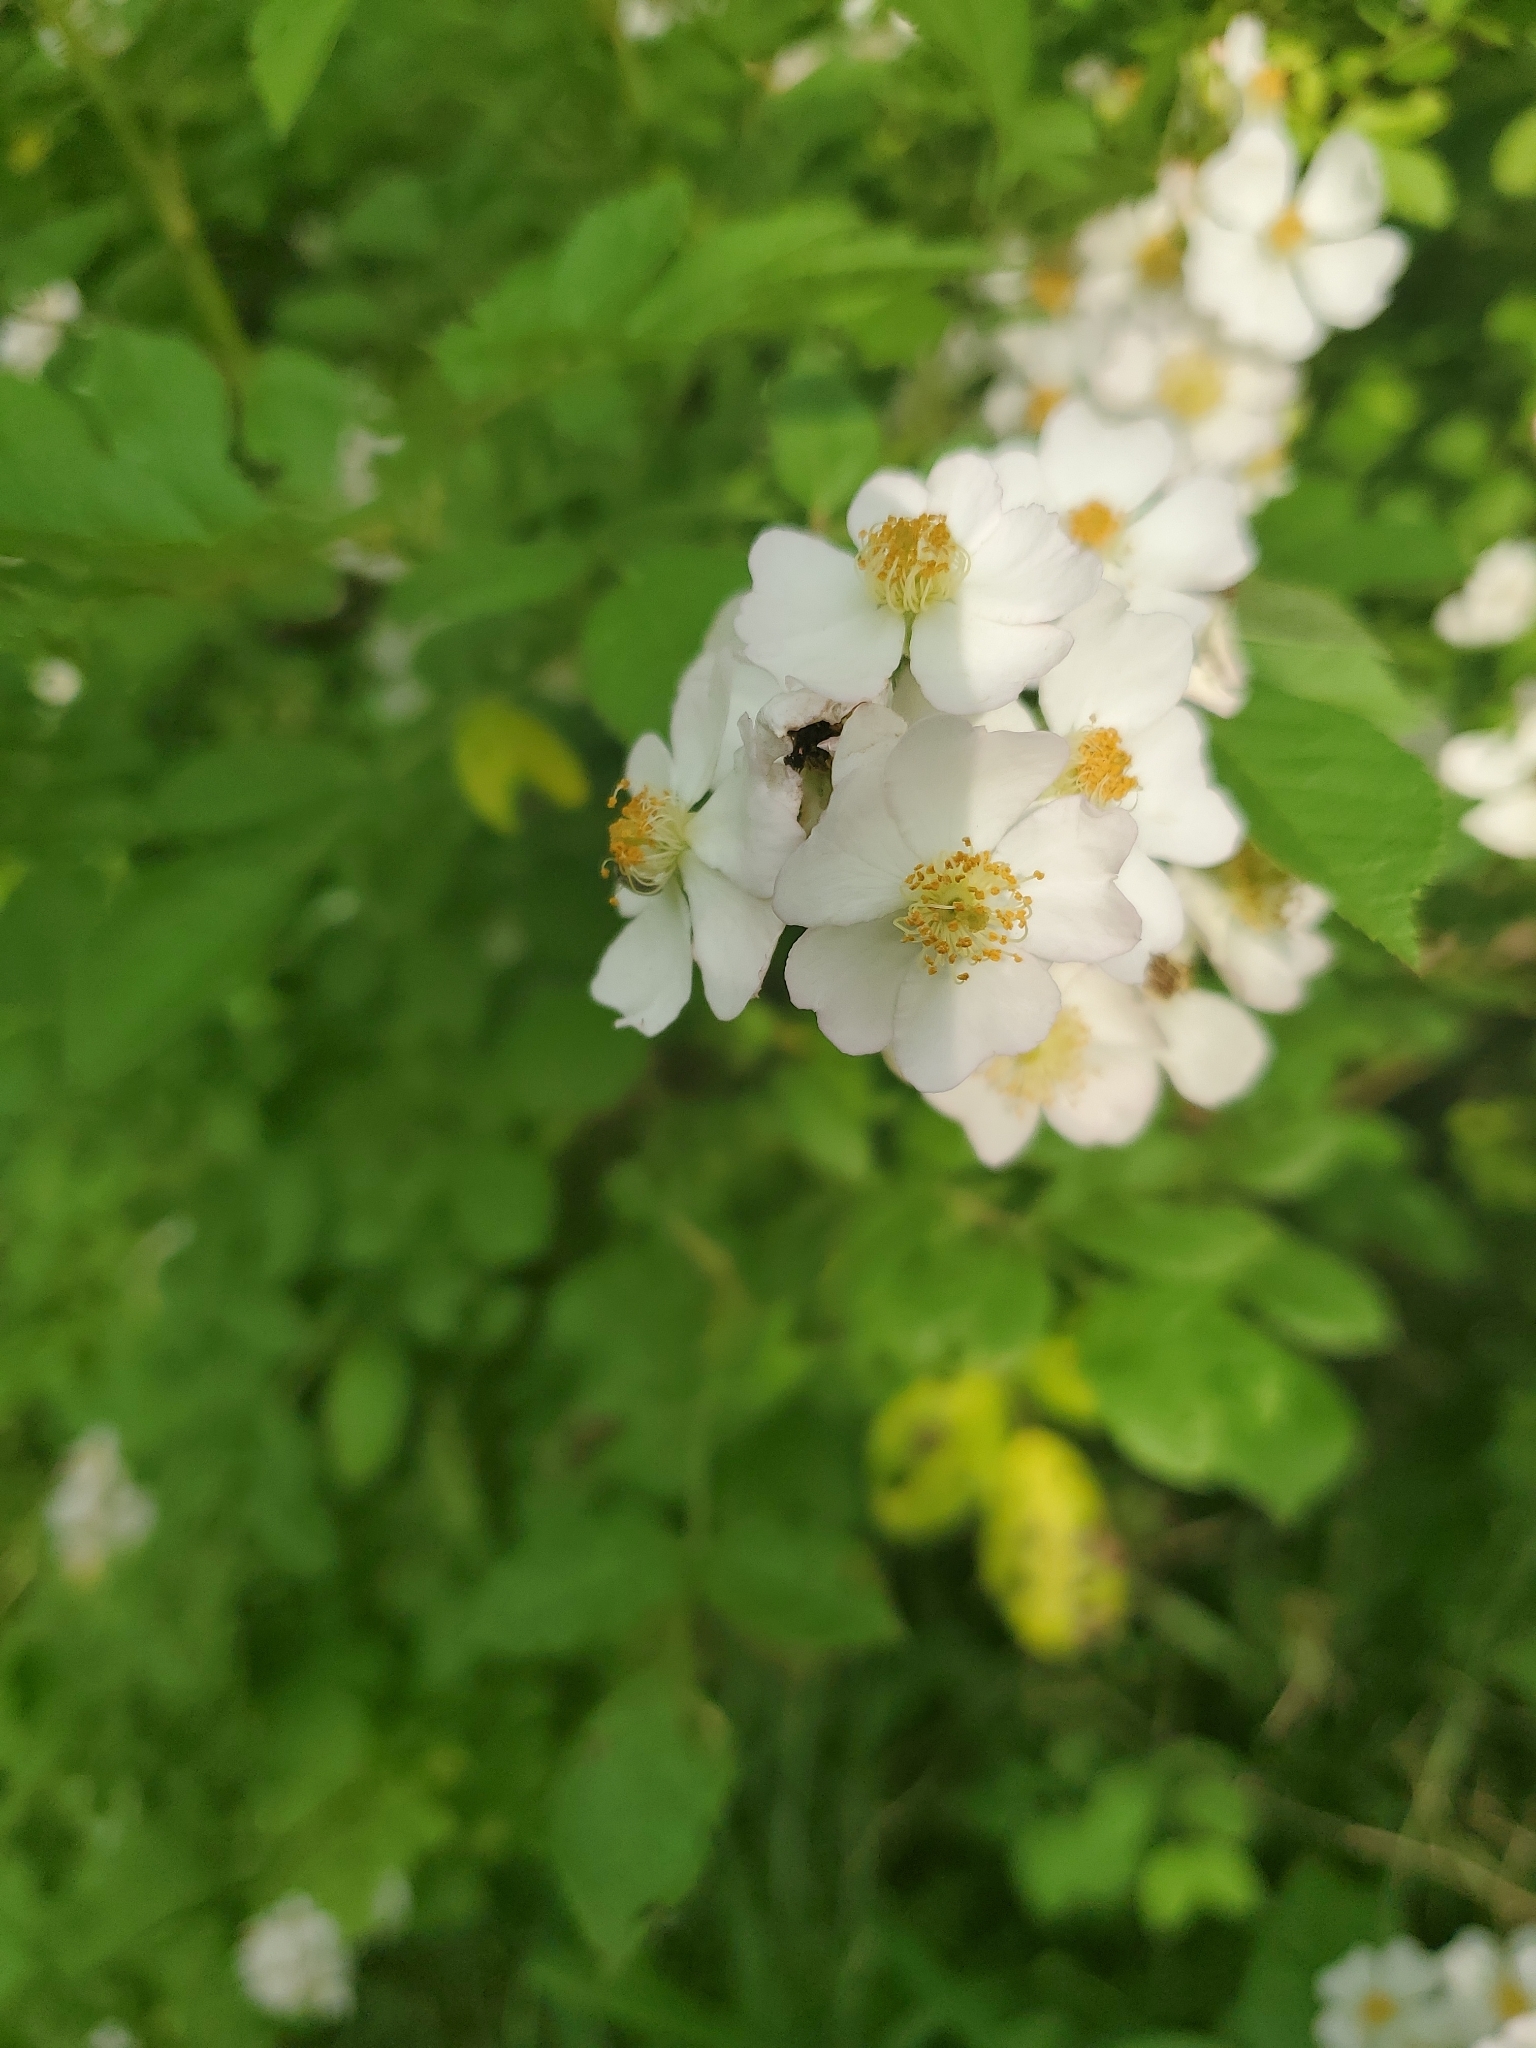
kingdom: Plantae
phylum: Tracheophyta
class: Magnoliopsida
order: Rosales
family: Rosaceae
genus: Rosa
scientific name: Rosa multiflora
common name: Multiflora rose
